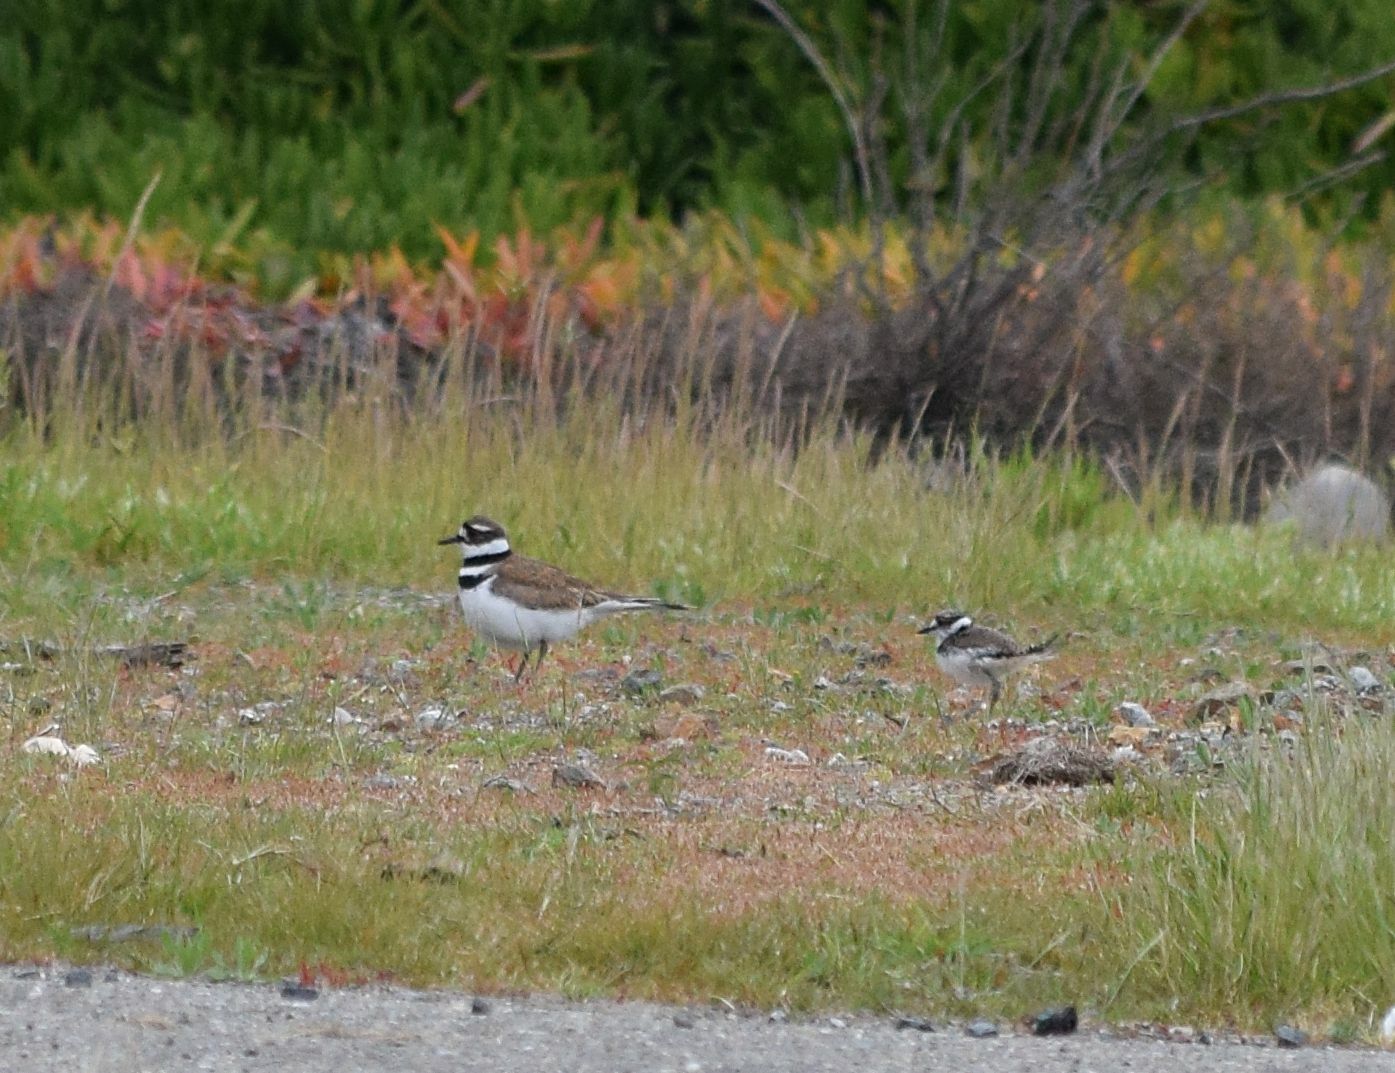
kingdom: Animalia
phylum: Chordata
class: Aves
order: Charadriiformes
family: Charadriidae
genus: Charadrius
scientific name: Charadrius vociferus
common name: Killdeer
